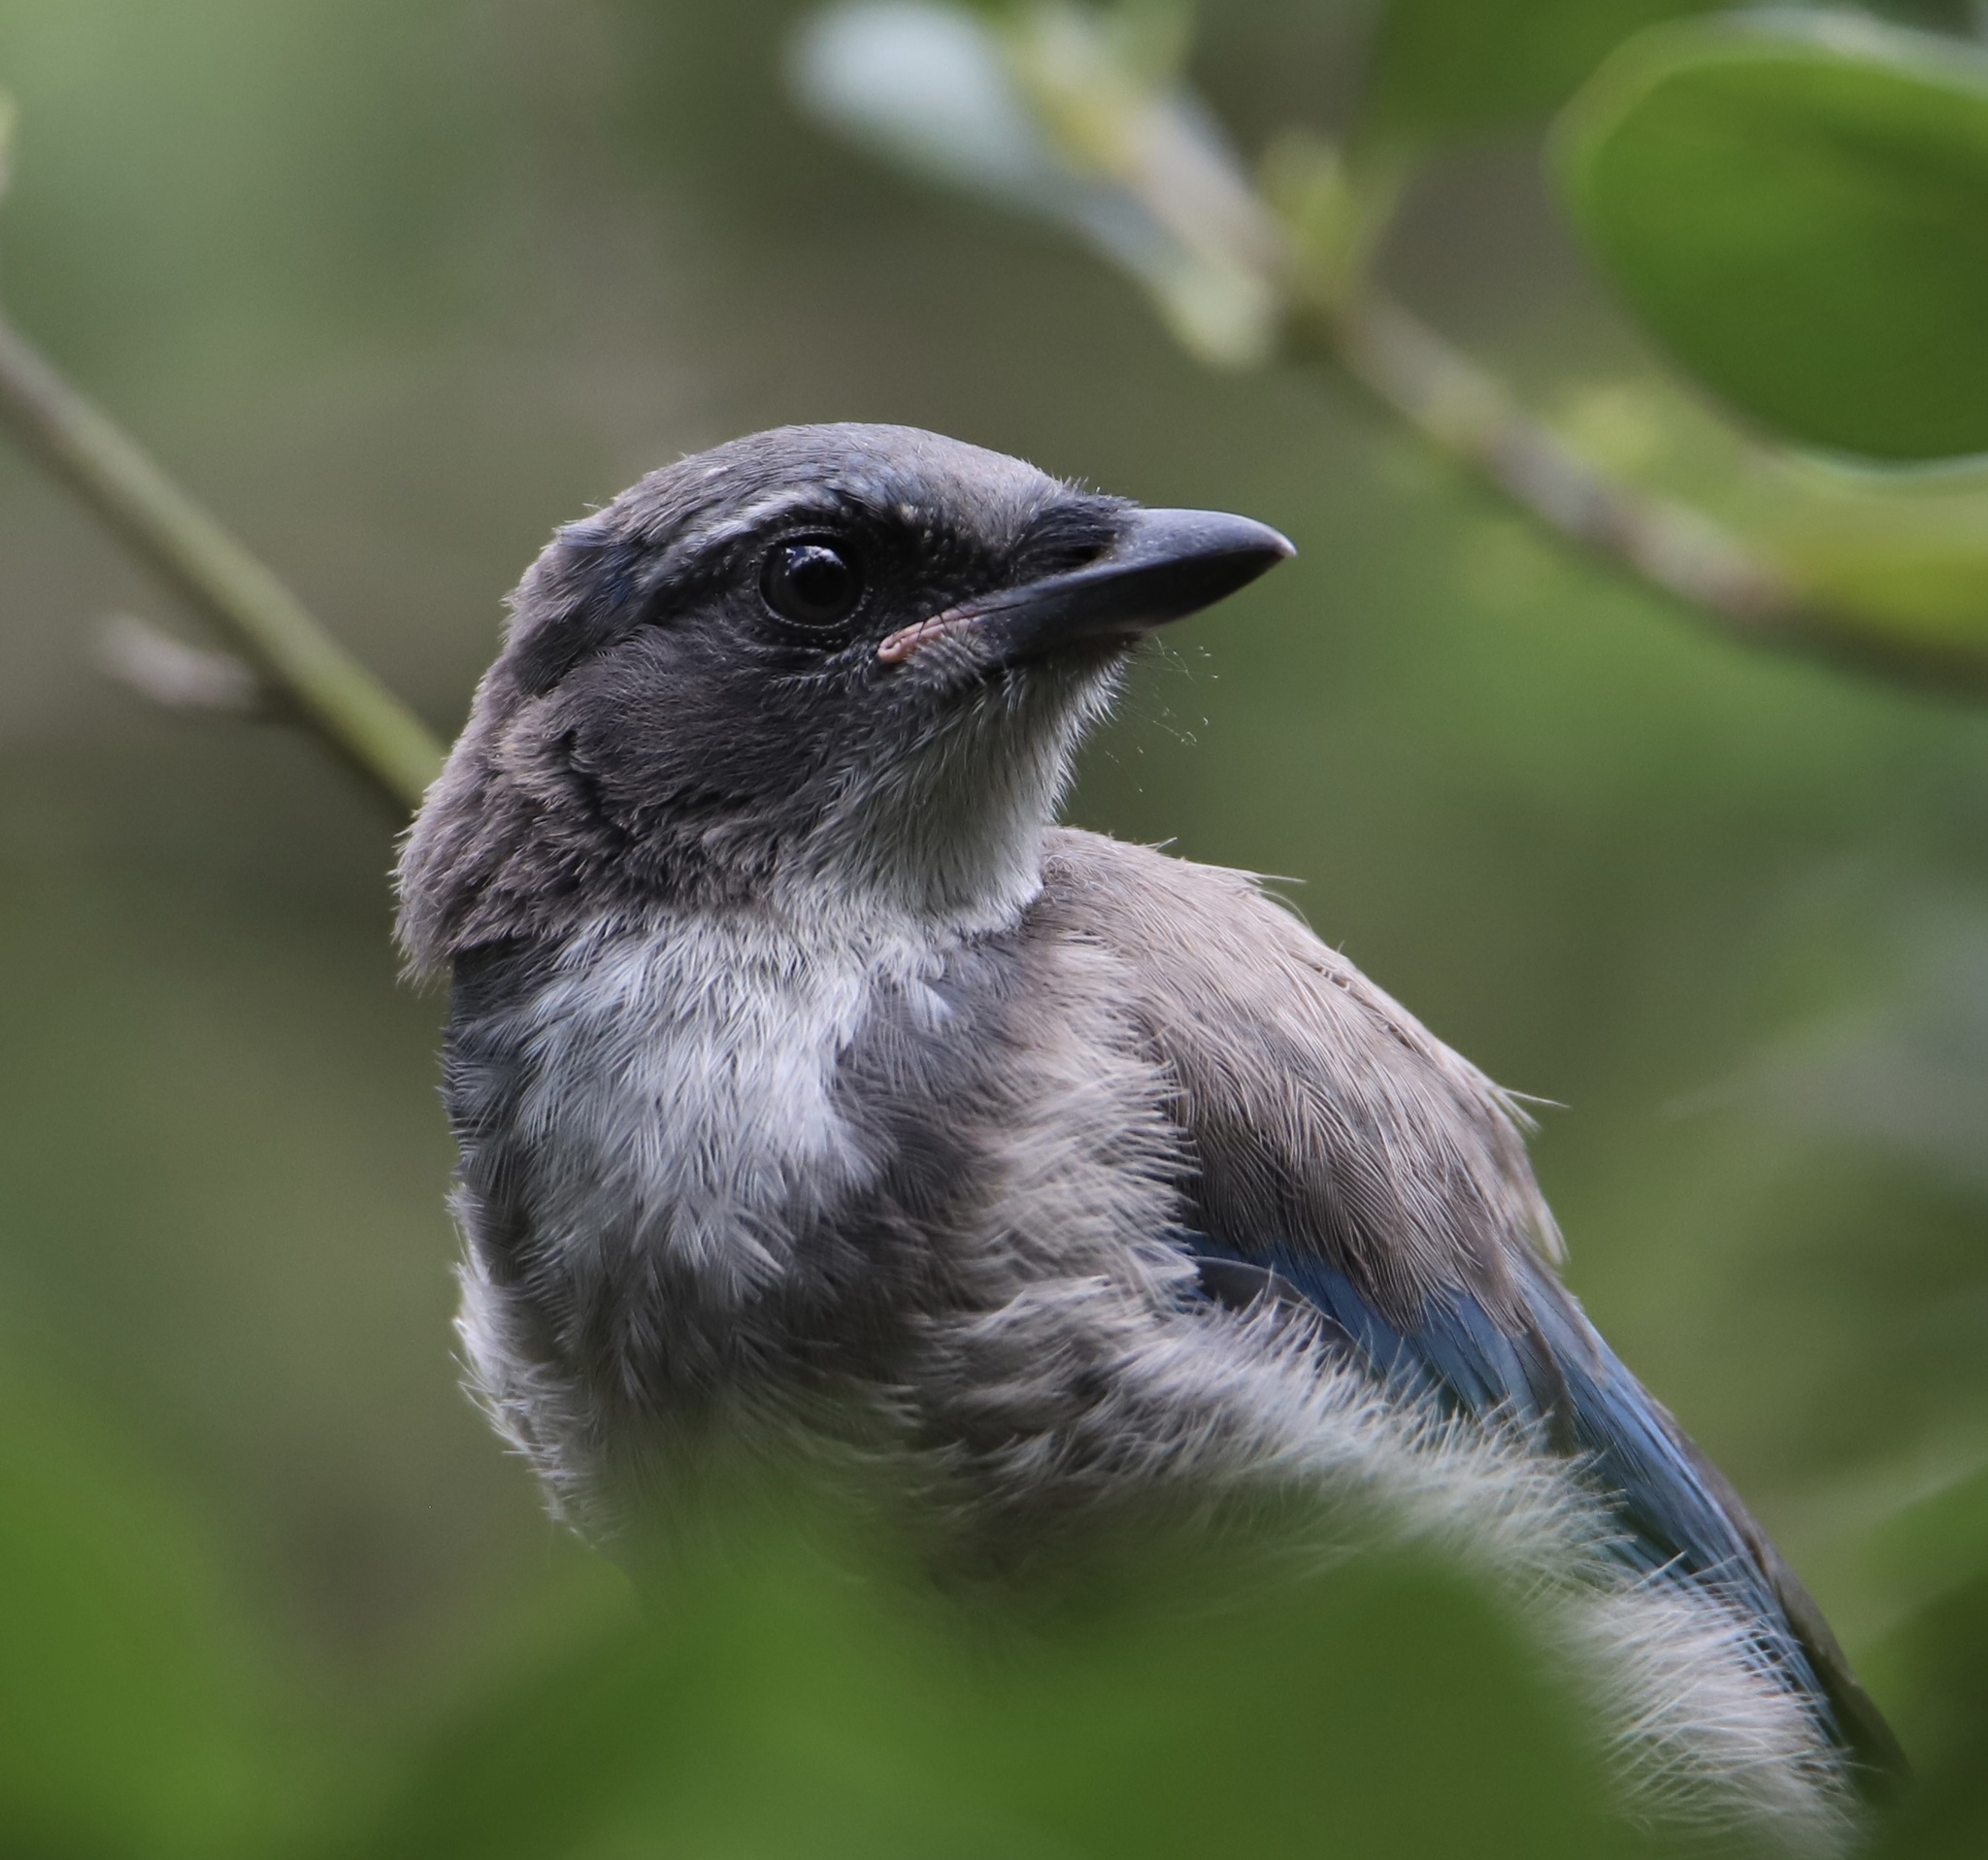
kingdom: Animalia
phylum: Chordata
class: Aves
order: Passeriformes
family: Corvidae
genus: Aphelocoma
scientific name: Aphelocoma californica
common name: California scrub-jay
